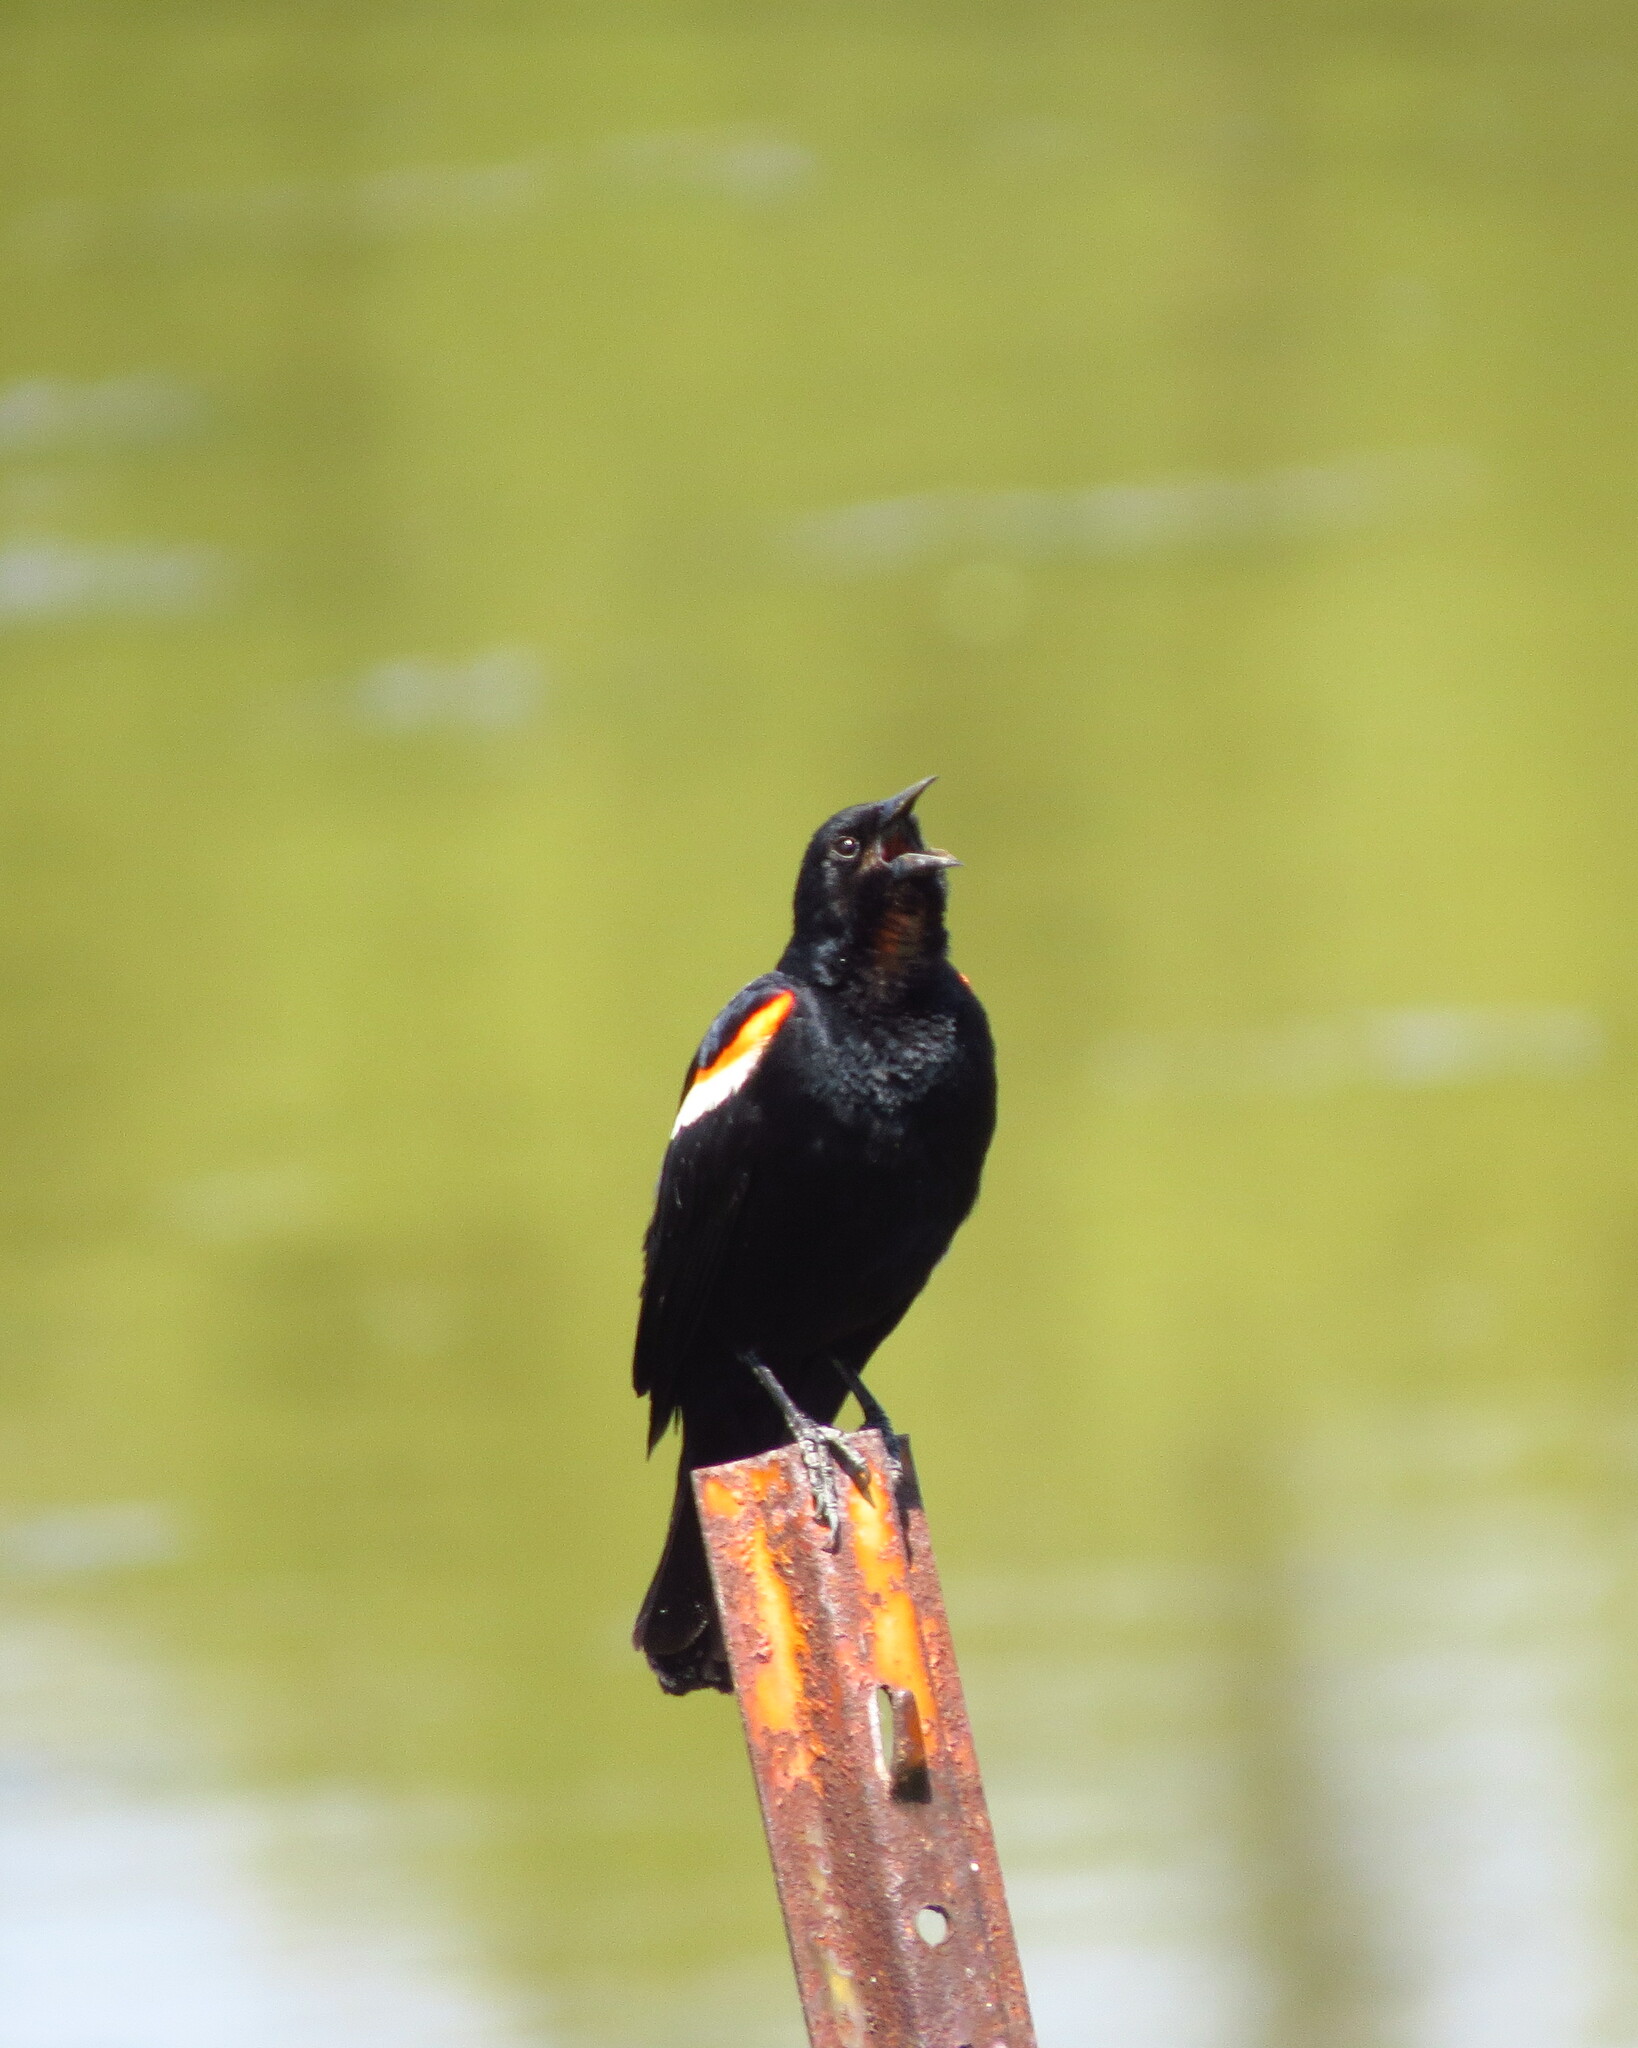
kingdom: Animalia
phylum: Chordata
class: Aves
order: Passeriformes
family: Icteridae
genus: Agelaius
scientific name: Agelaius phoeniceus
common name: Red-winged blackbird
